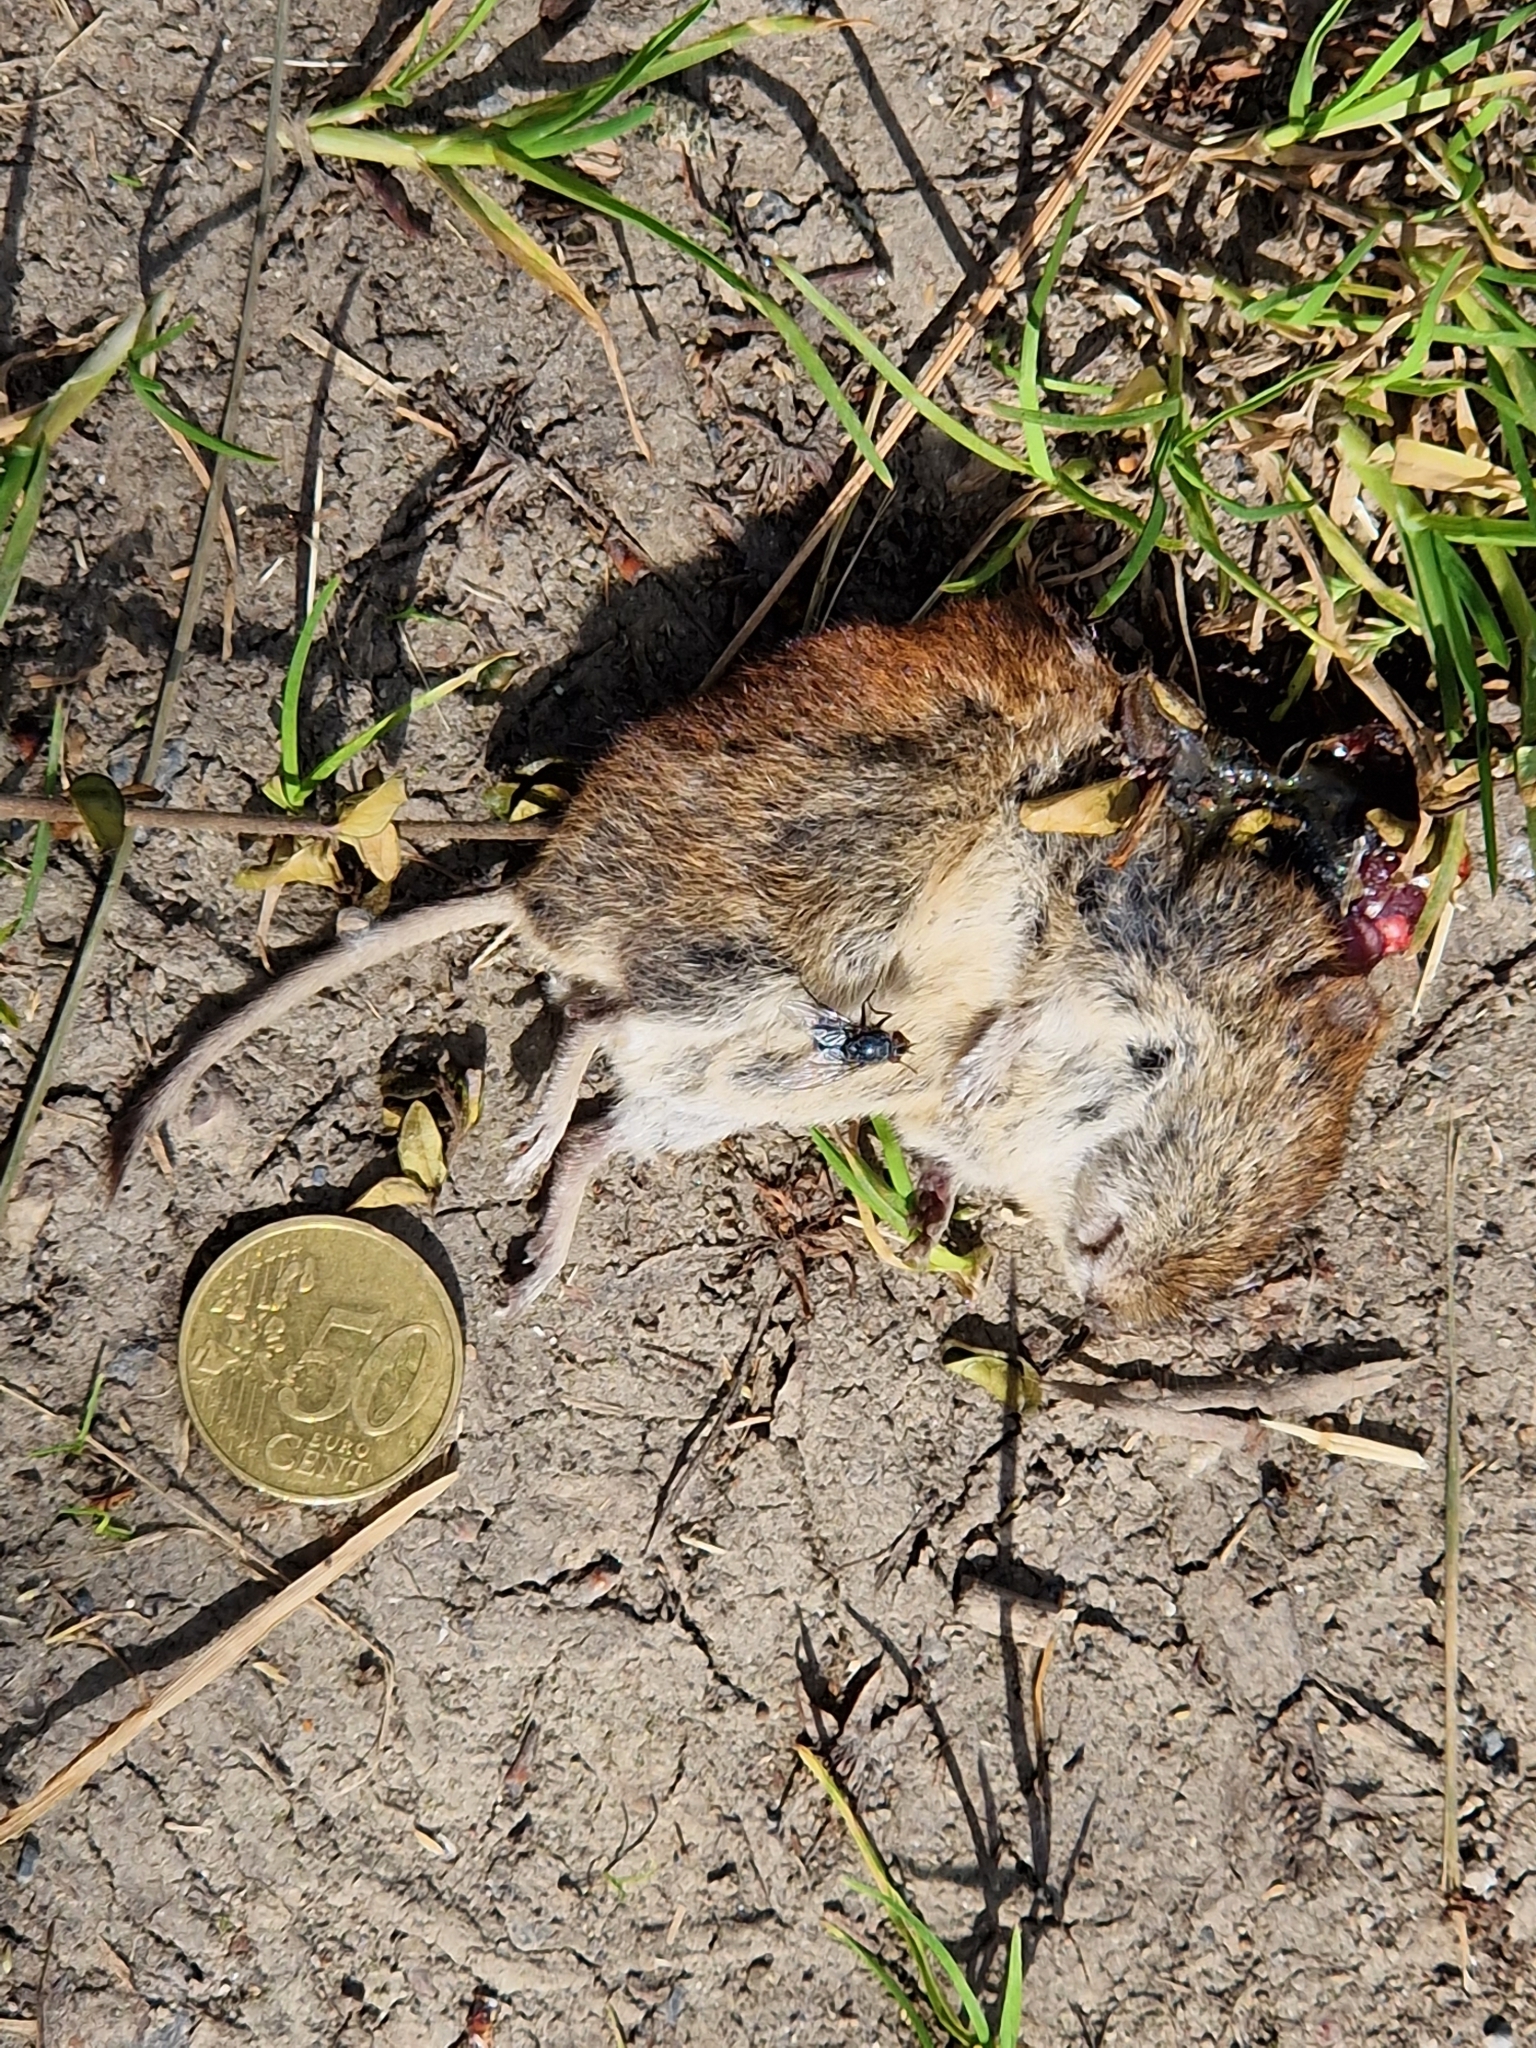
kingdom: Animalia
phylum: Chordata
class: Mammalia
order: Rodentia
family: Cricetidae
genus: Myodes
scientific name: Myodes glareolus
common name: Bank vole
